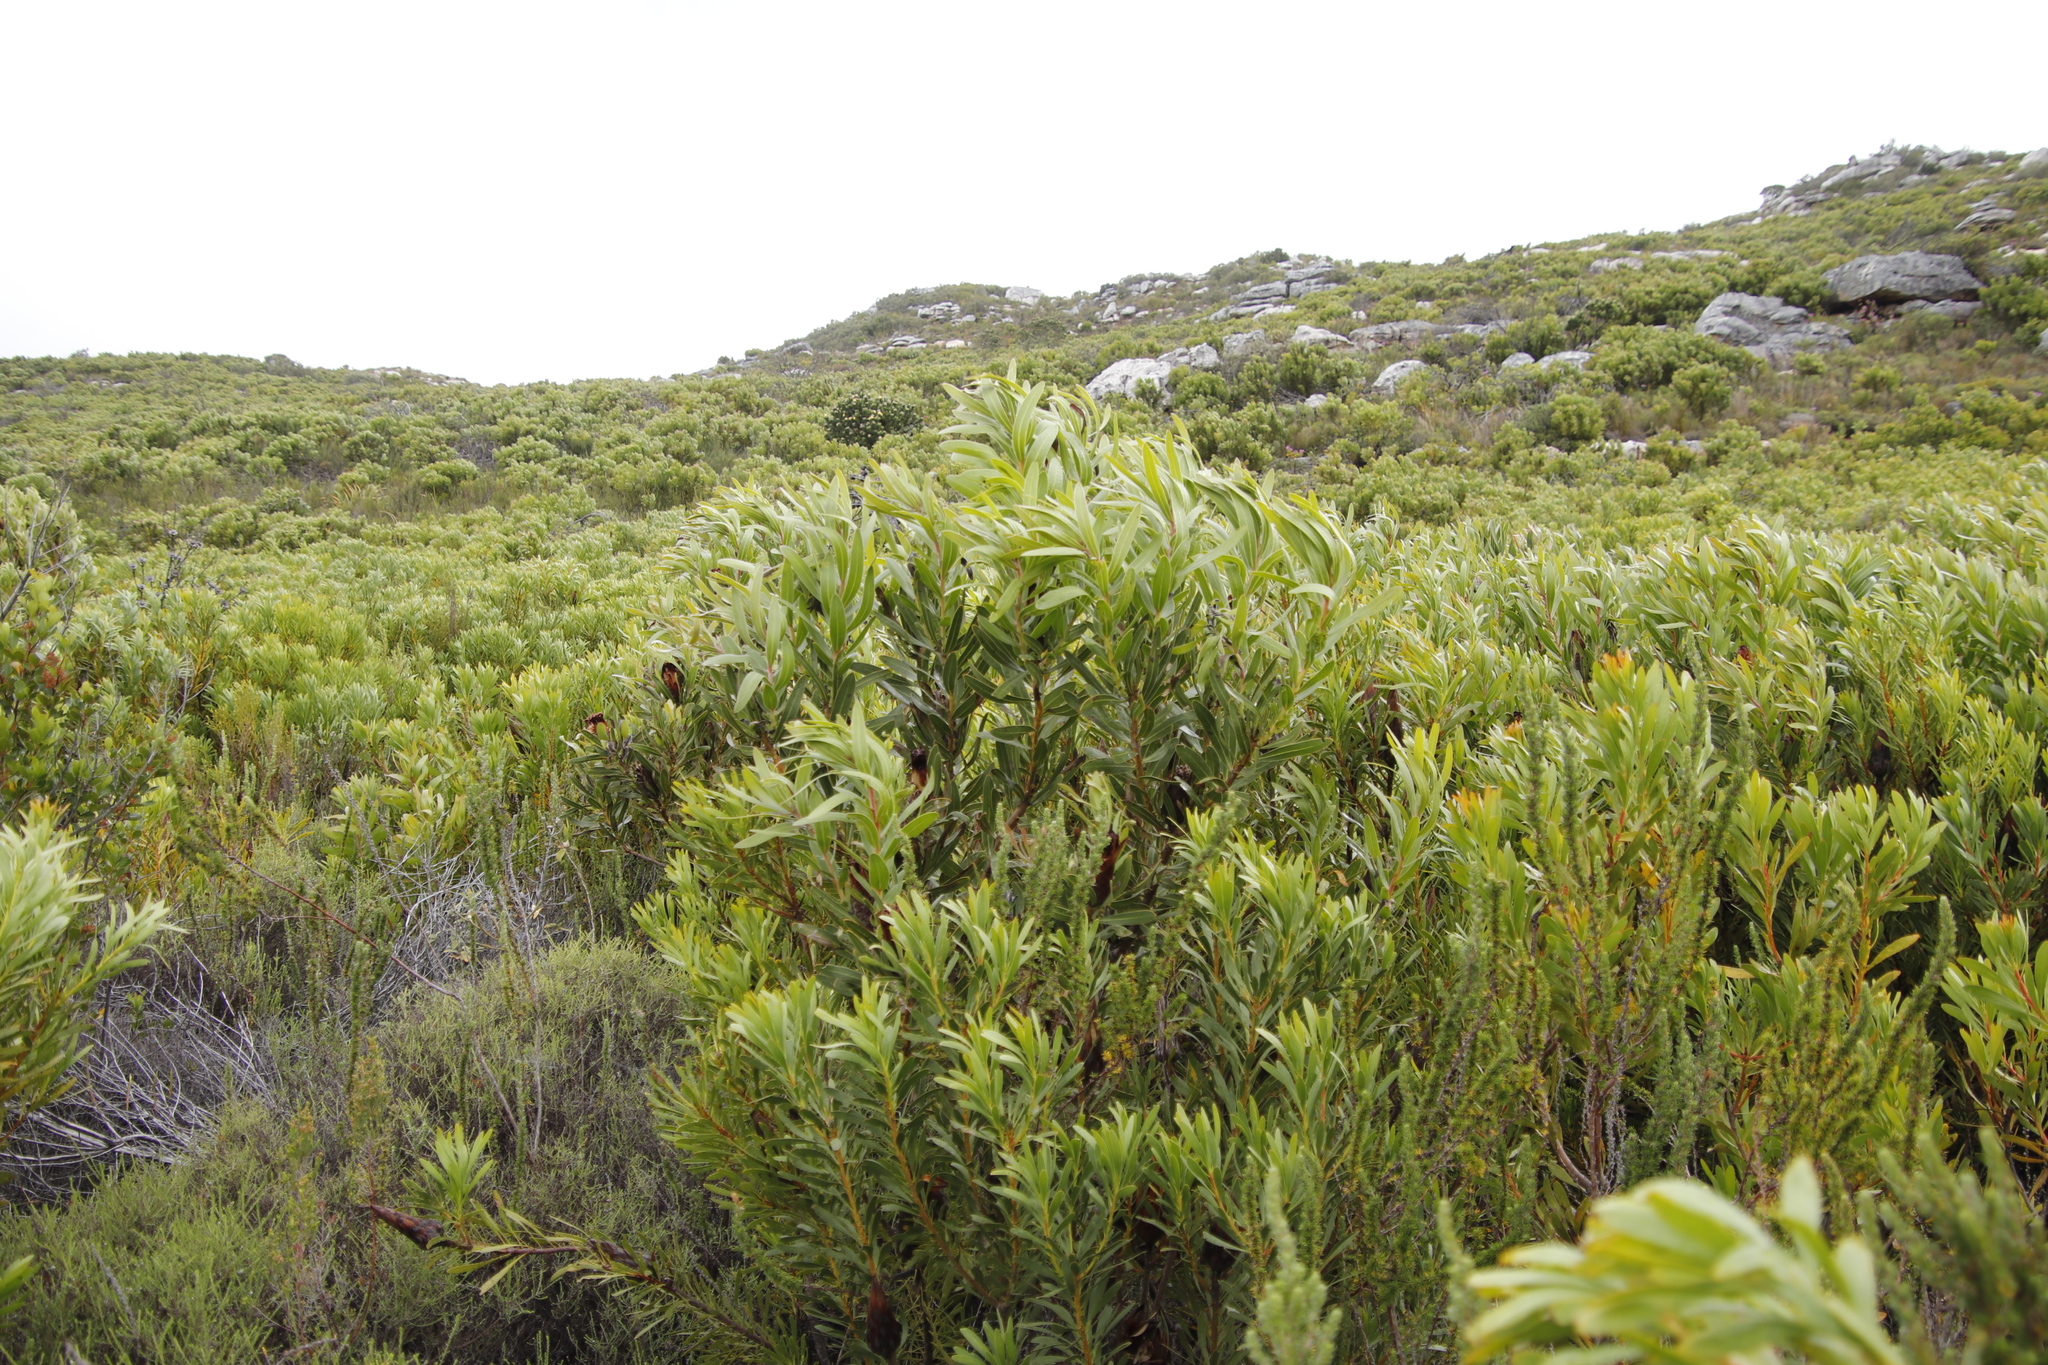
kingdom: Plantae
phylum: Tracheophyta
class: Magnoliopsida
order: Proteales
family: Proteaceae
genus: Protea
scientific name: Protea lepidocarpodendron
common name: Black-bearded protea
